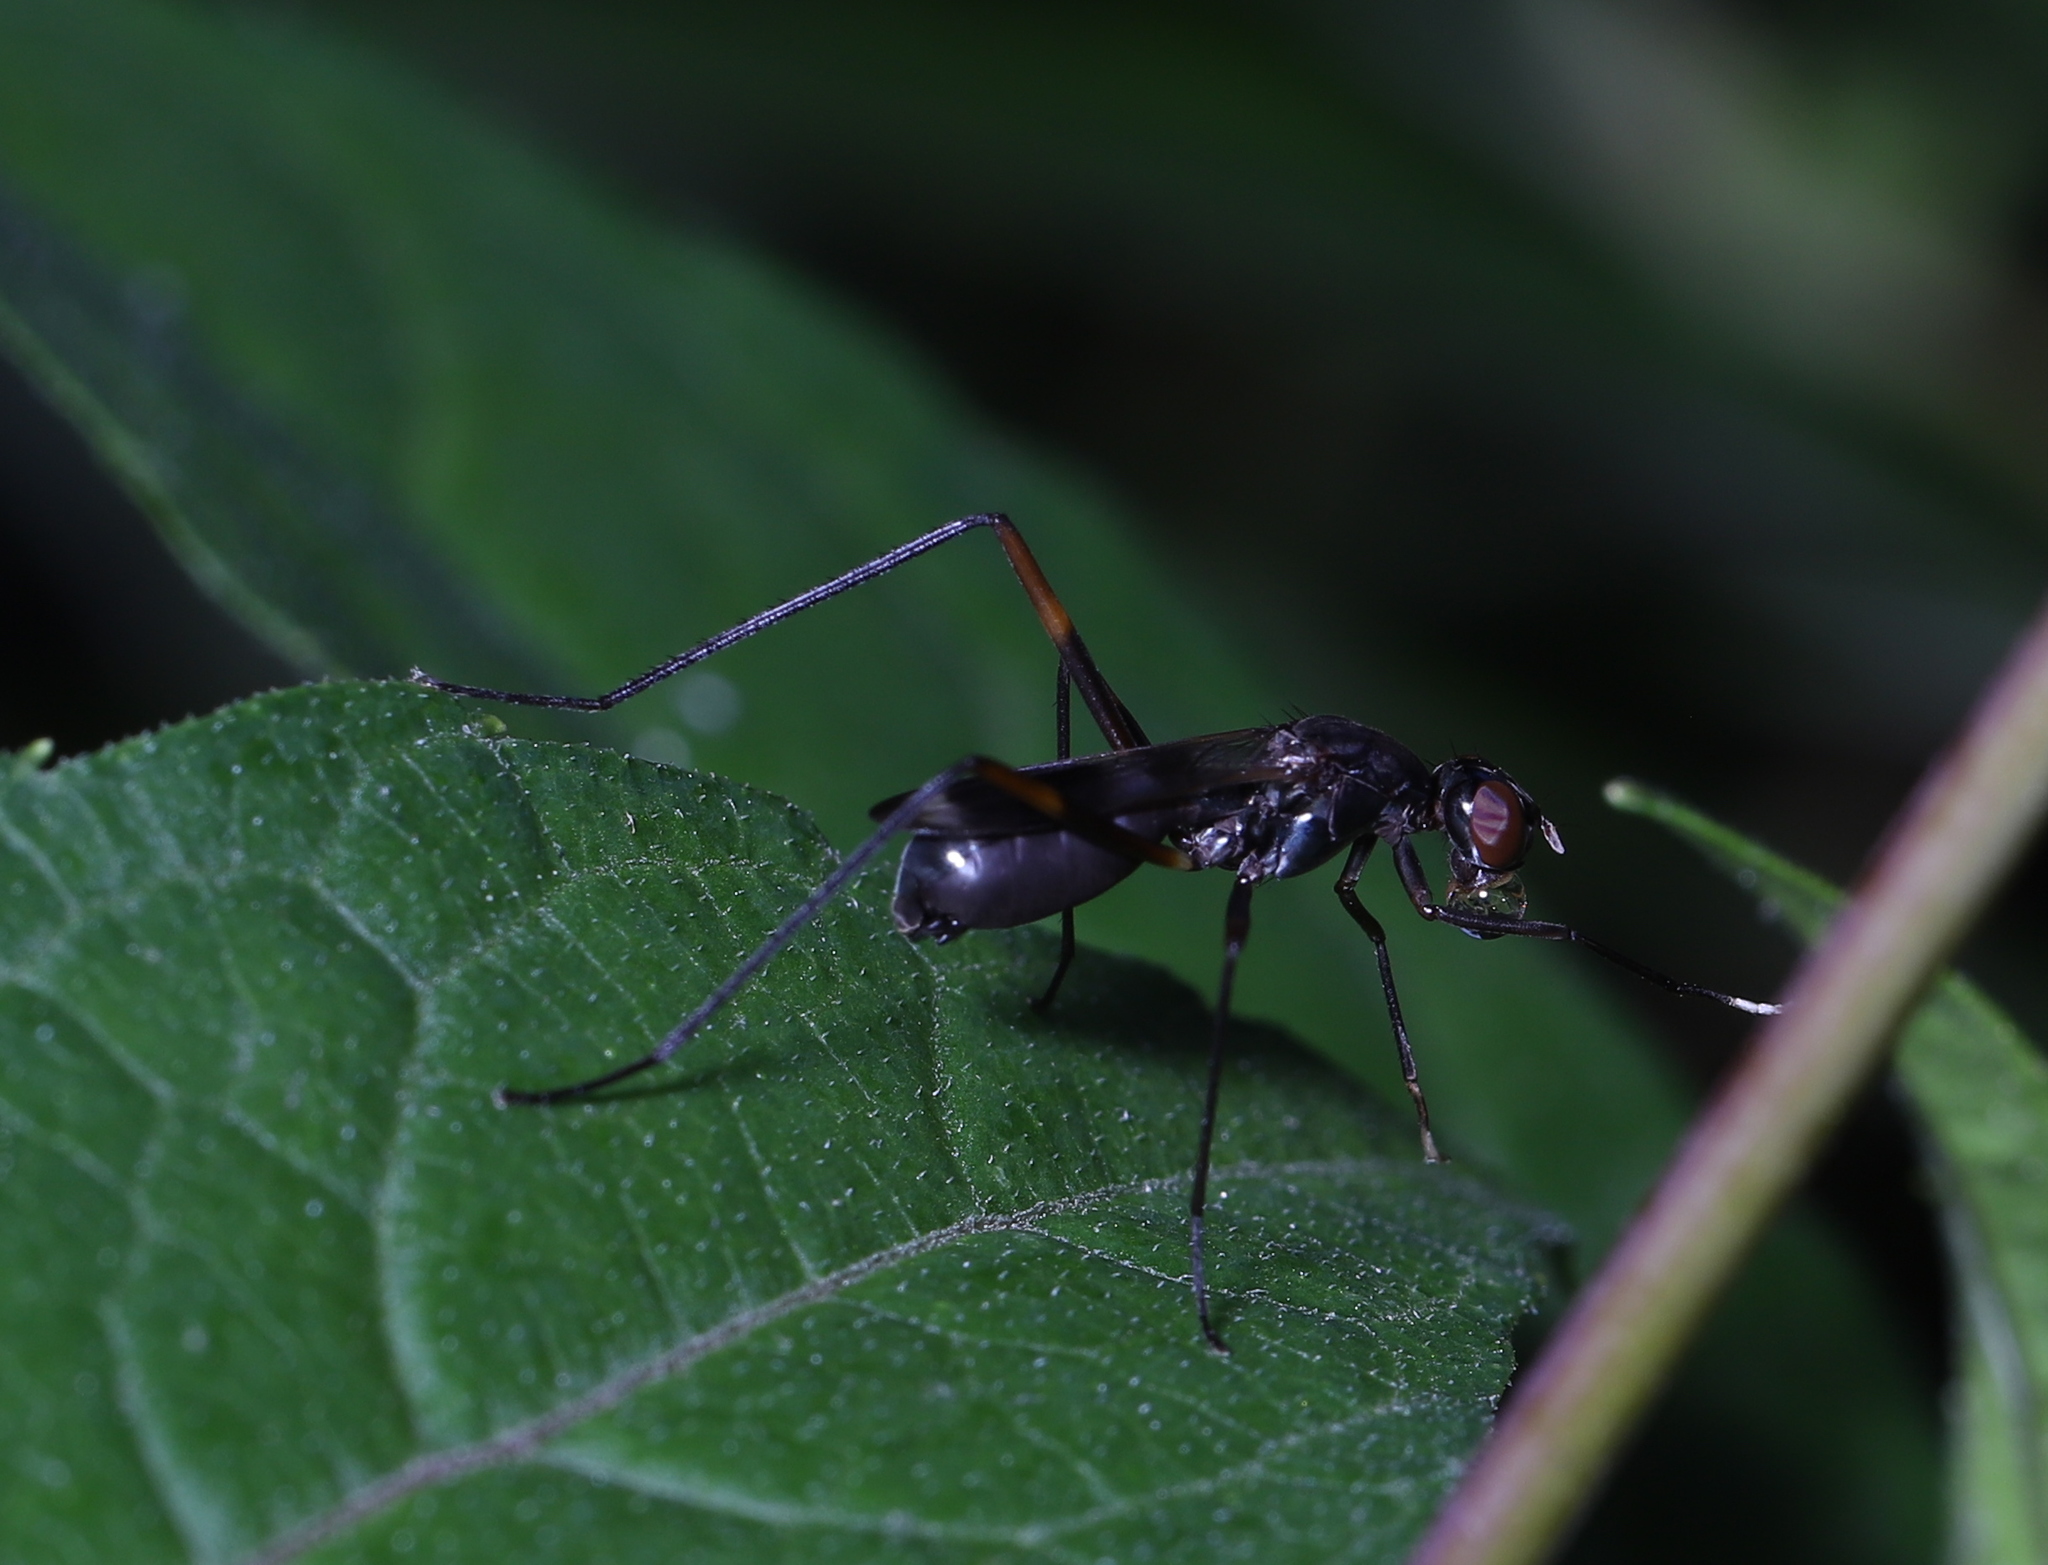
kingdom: Animalia
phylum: Arthropoda
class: Insecta
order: Diptera
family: Micropezidae
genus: Taeniaptera
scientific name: Taeniaptera trivittata
